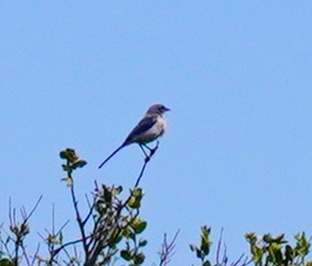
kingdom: Animalia
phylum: Chordata
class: Aves
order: Passeriformes
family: Corvidae
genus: Aphelocoma
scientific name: Aphelocoma californica
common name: California scrub-jay
